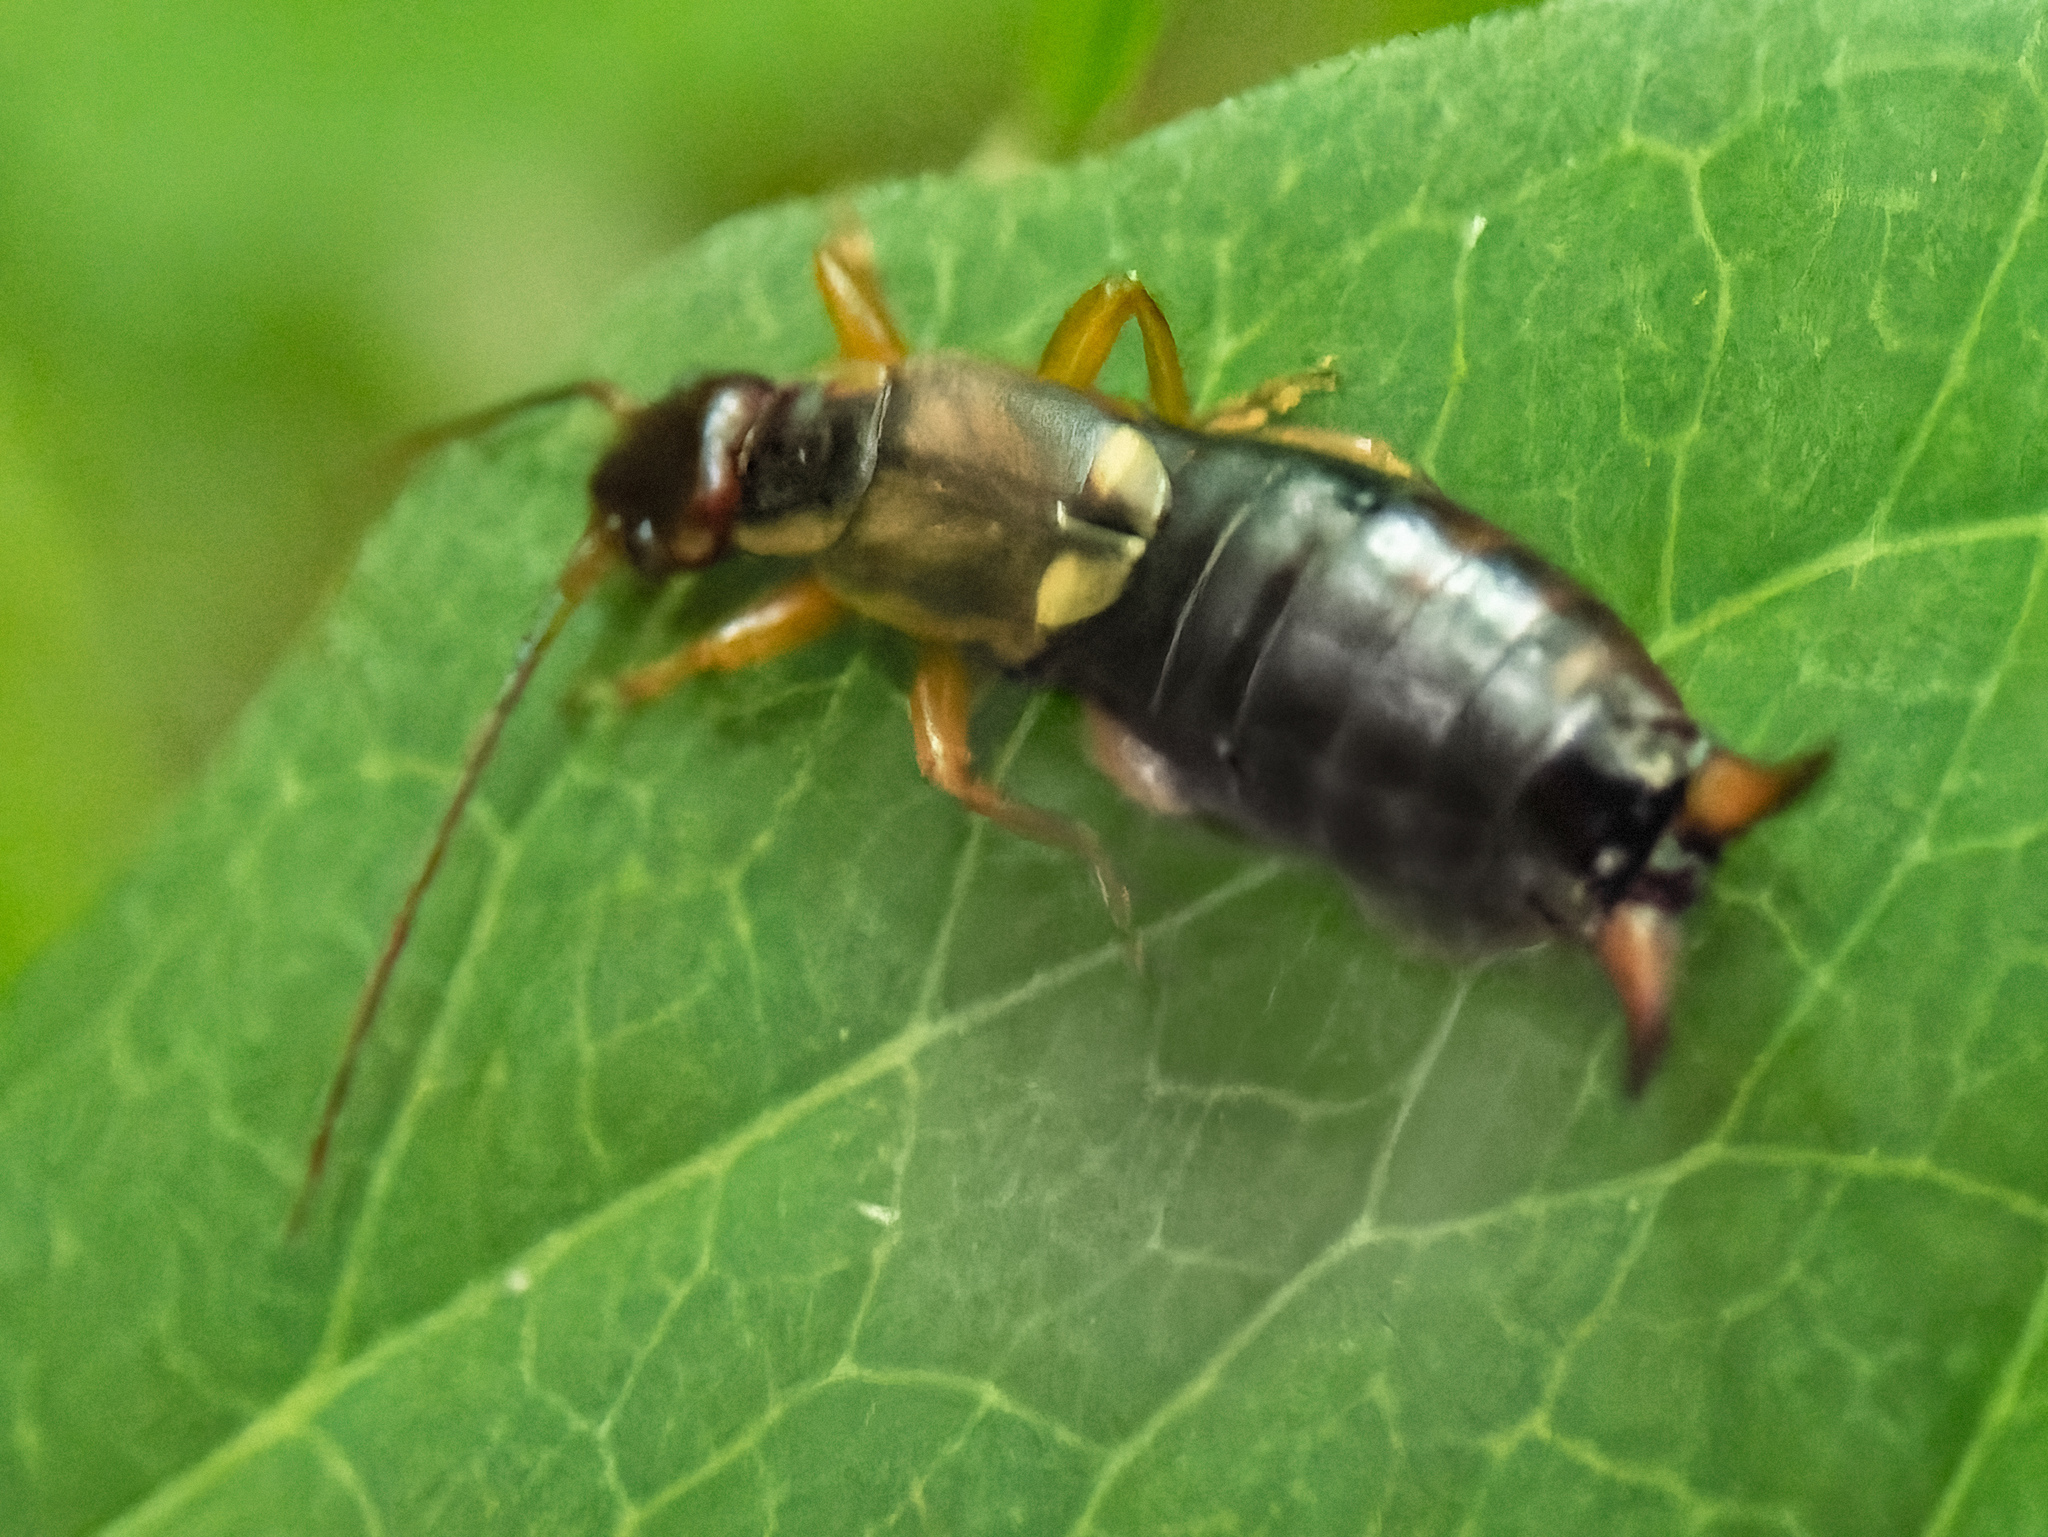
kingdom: Animalia
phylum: Arthropoda
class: Insecta
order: Dermaptera
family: Forficulidae
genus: Forficula
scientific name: Forficula
